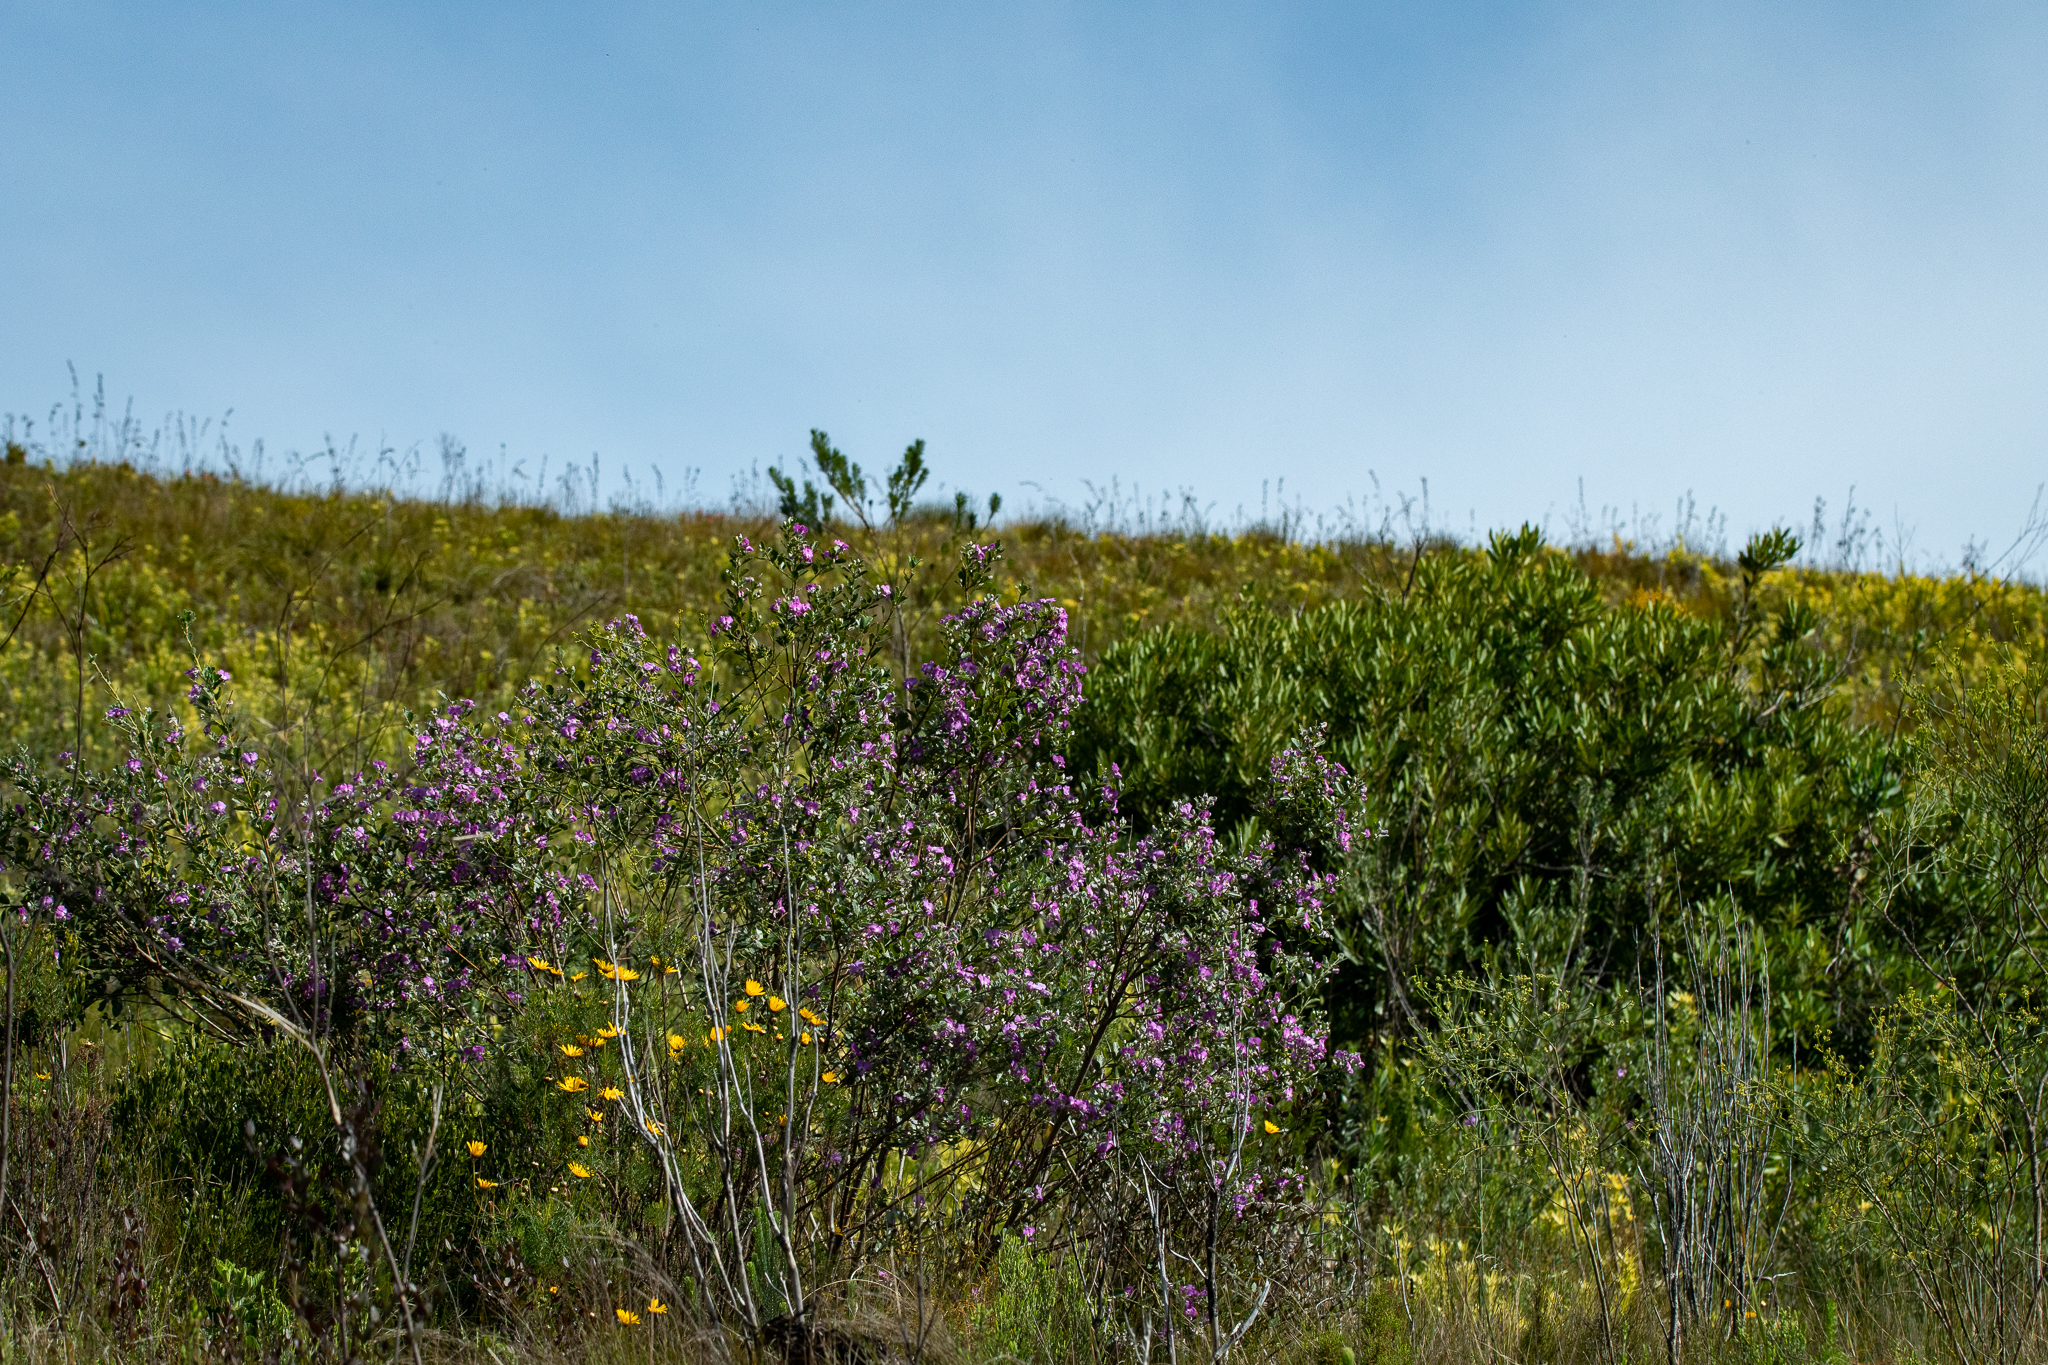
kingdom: Plantae
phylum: Tracheophyta
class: Magnoliopsida
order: Fabales
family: Fabaceae
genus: Podalyria
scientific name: Podalyria calyptrata
